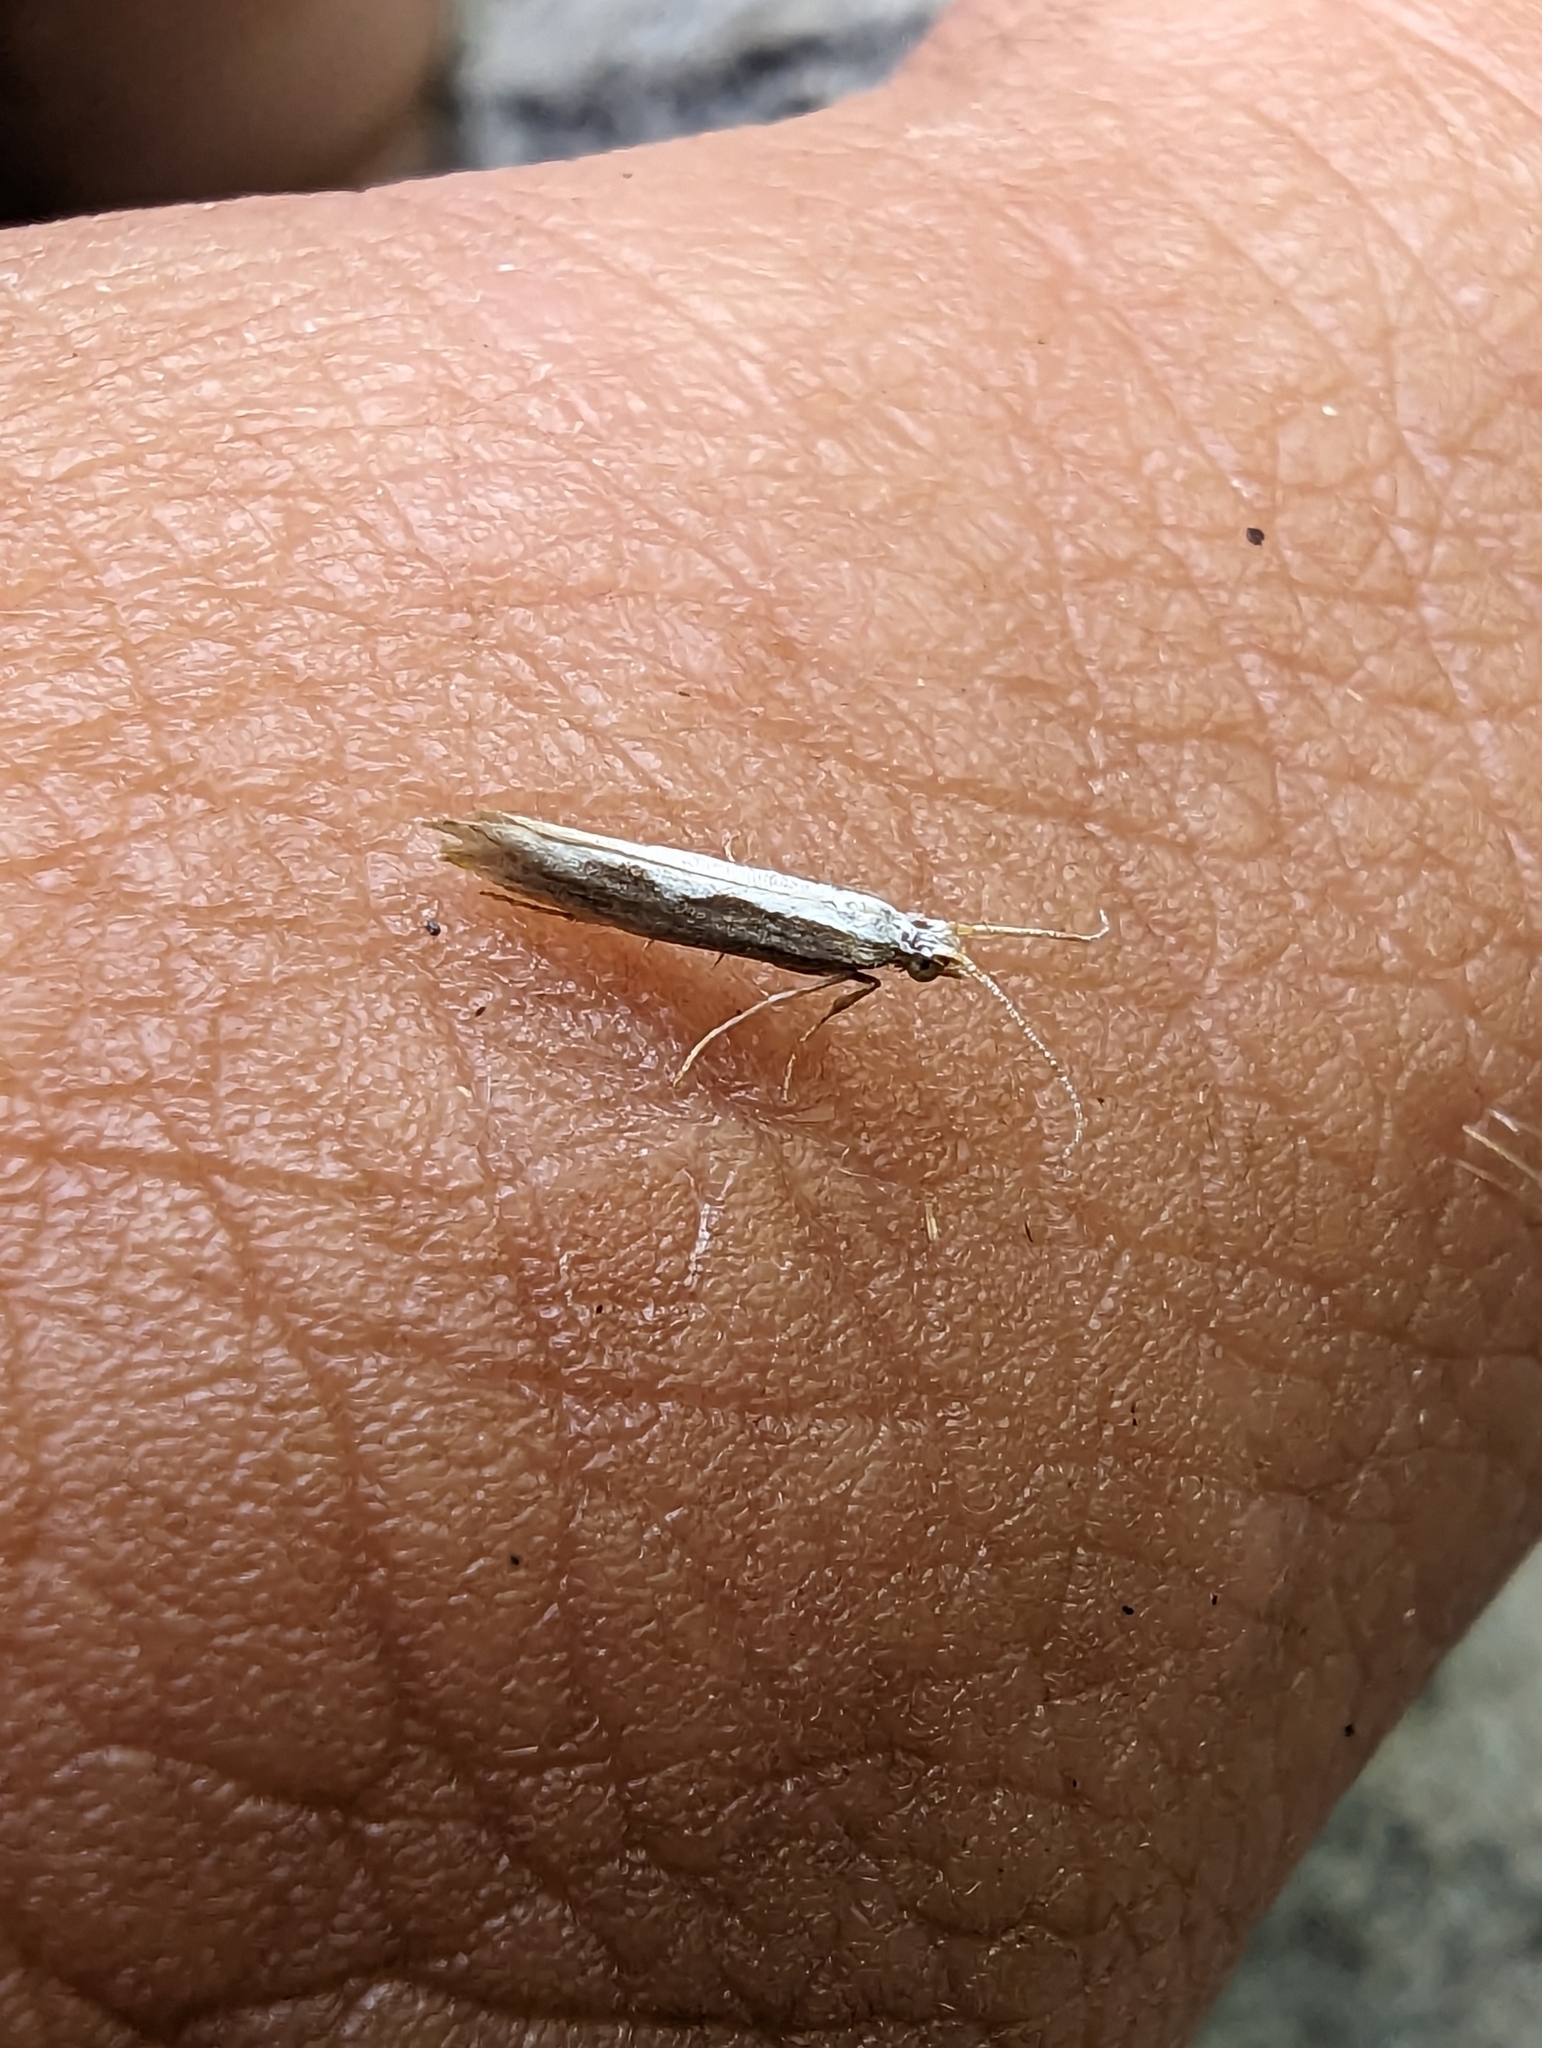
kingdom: Animalia
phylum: Arthropoda
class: Insecta
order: Lepidoptera
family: Plutellidae
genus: Plutella
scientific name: Plutella xylostella
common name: Diamond-back moth
